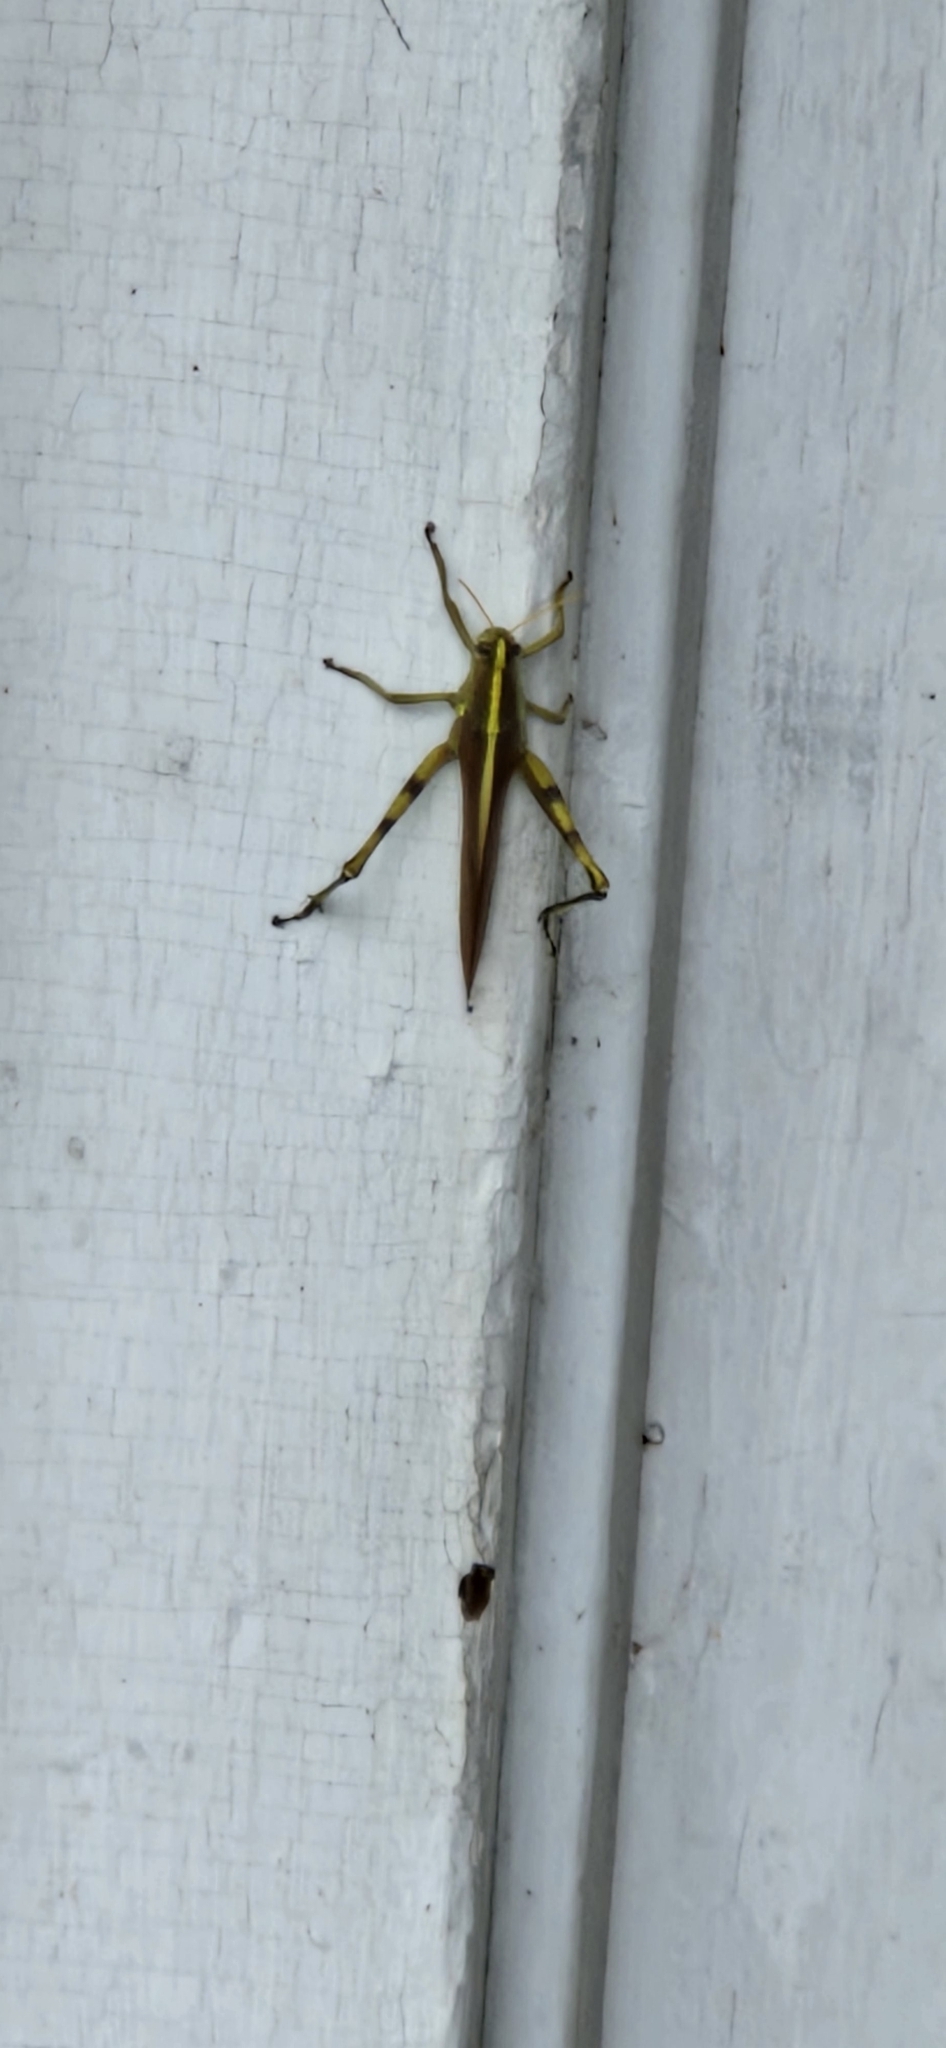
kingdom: Animalia
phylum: Arthropoda
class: Insecta
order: Orthoptera
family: Acrididae
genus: Schistocerca
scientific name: Schistocerca obscura
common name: Obscure bird grasshopper
